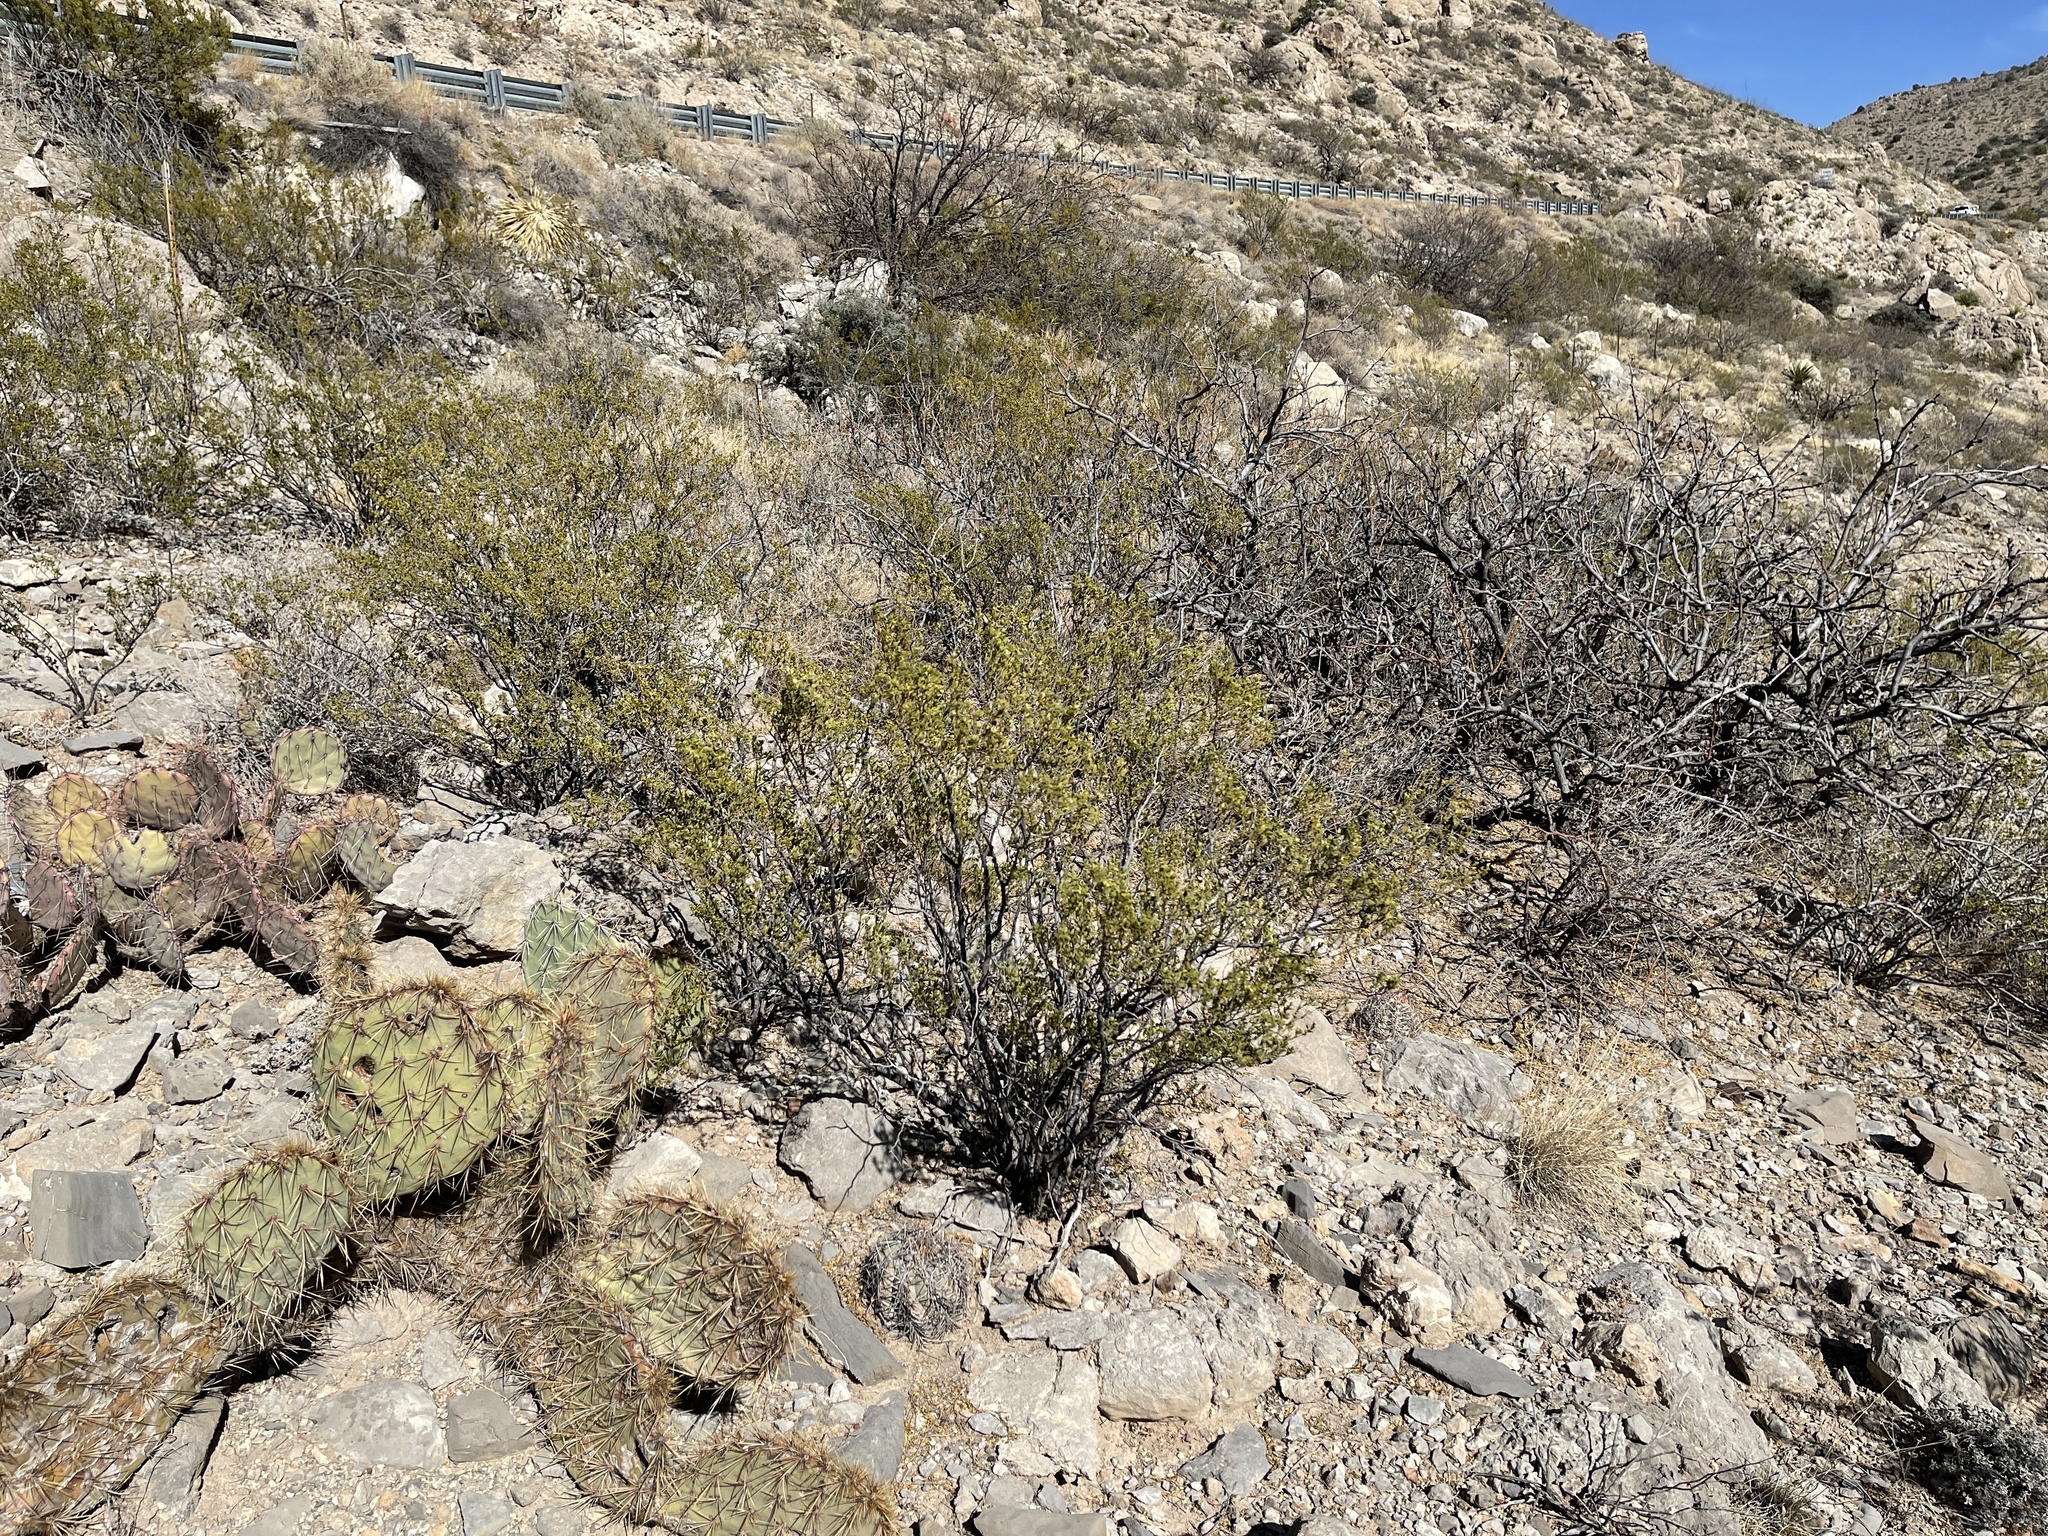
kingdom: Plantae
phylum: Tracheophyta
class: Magnoliopsida
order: Zygophyllales
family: Zygophyllaceae
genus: Larrea
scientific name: Larrea tridentata
